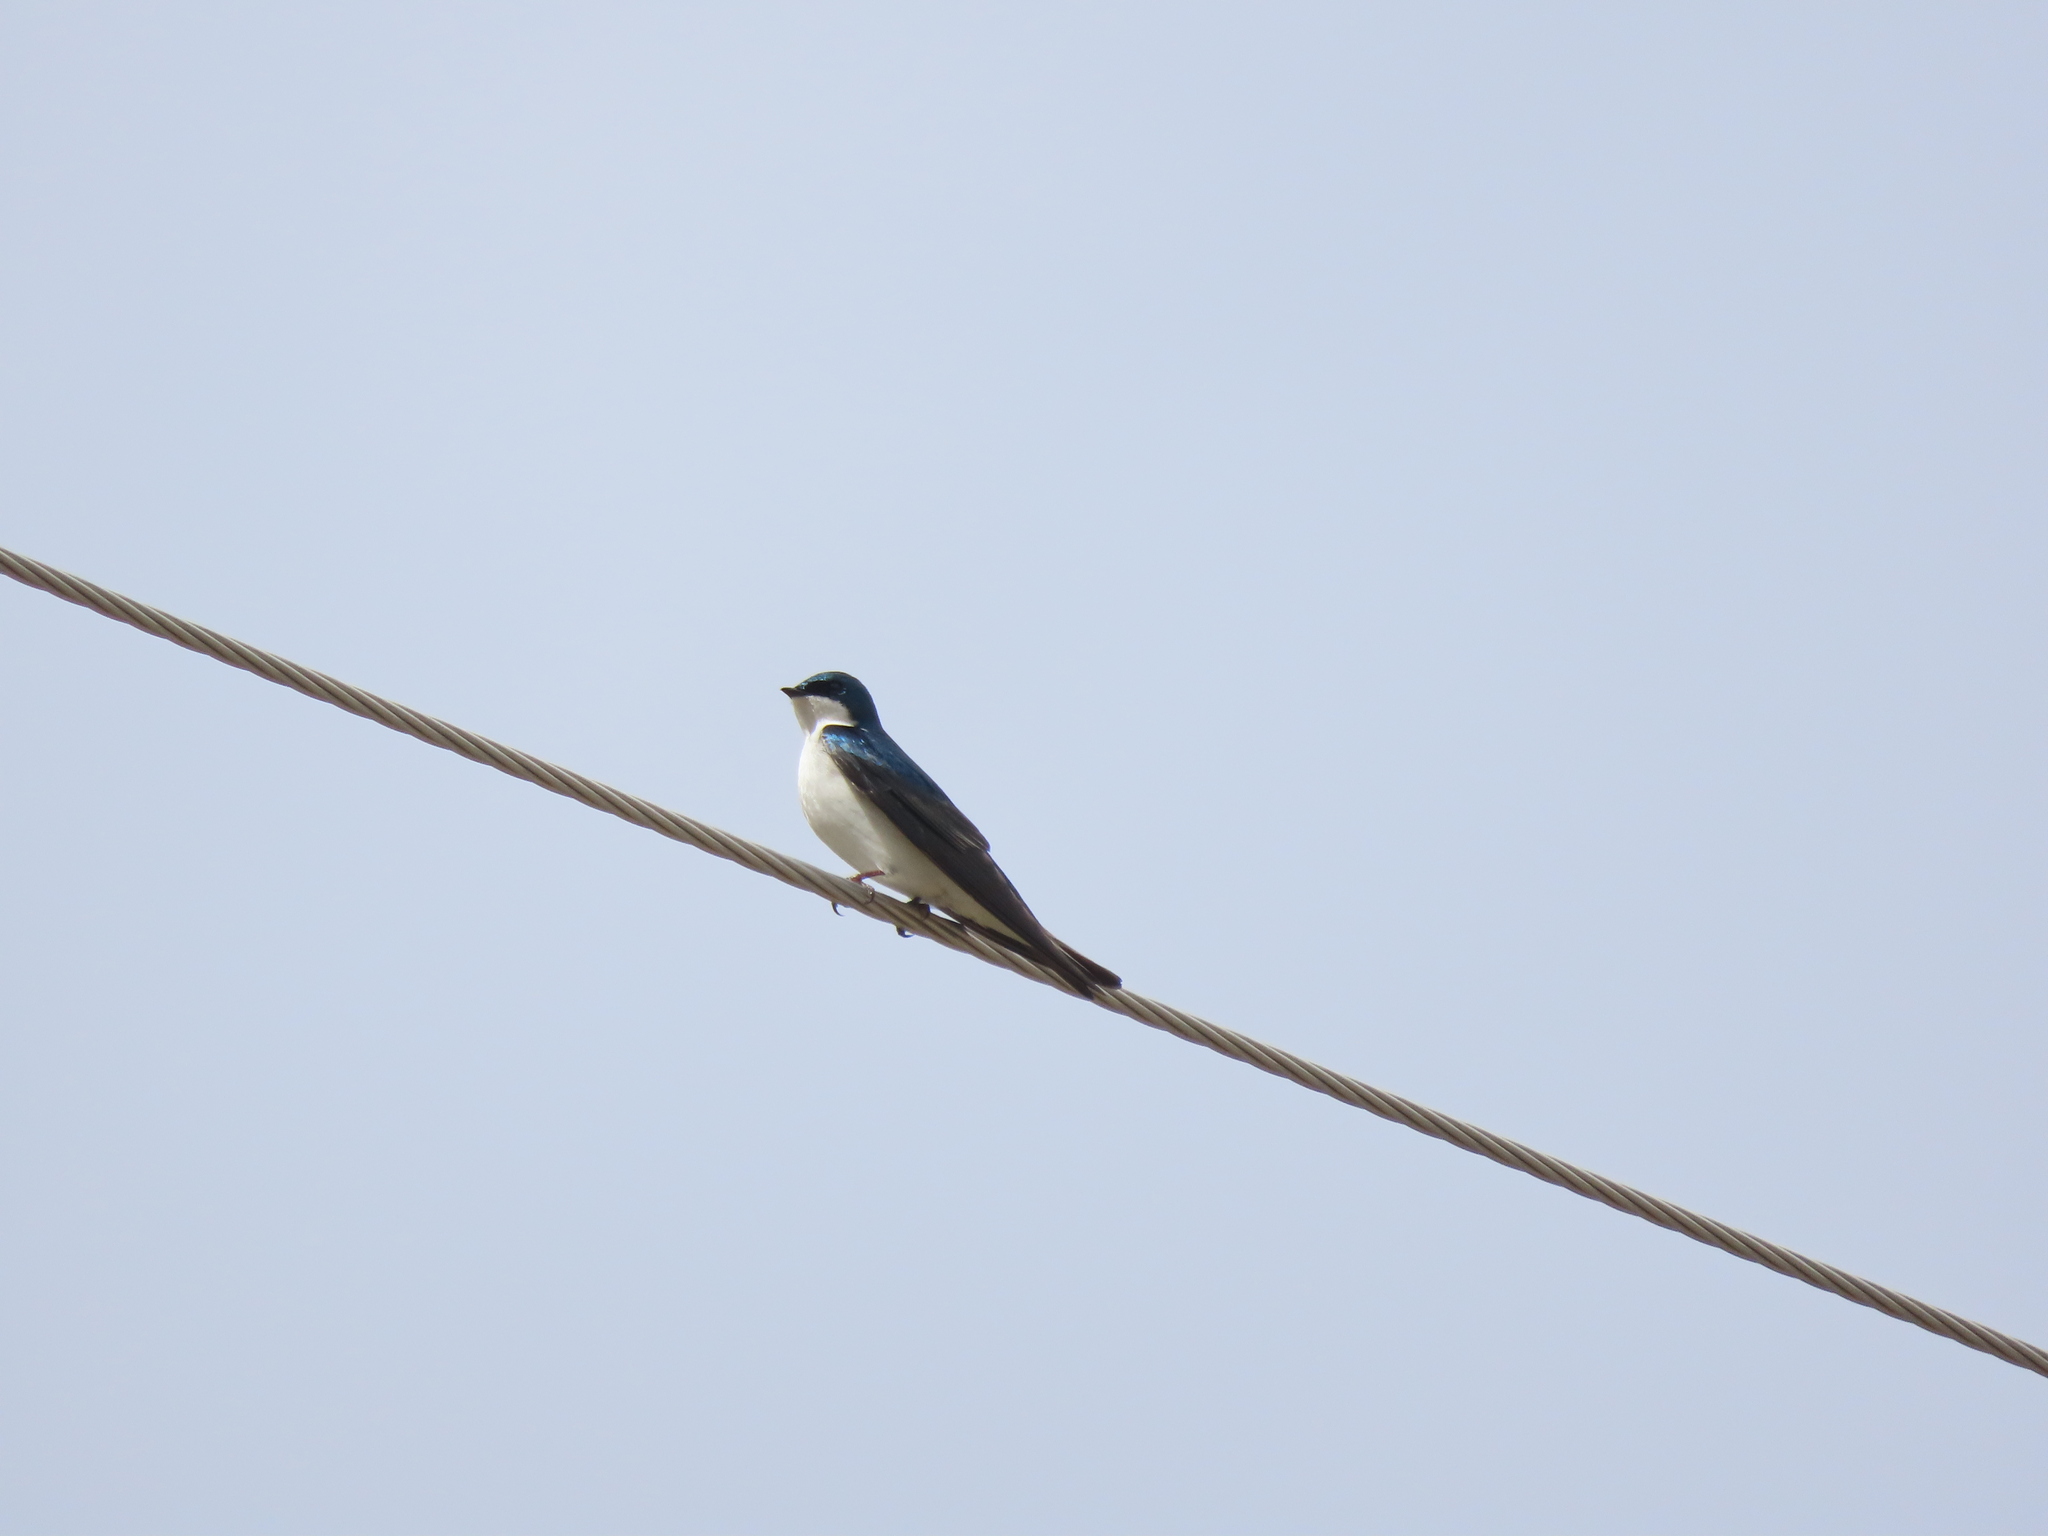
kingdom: Animalia
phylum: Chordata
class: Aves
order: Passeriformes
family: Hirundinidae
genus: Tachycineta
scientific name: Tachycineta bicolor
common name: Tree swallow
